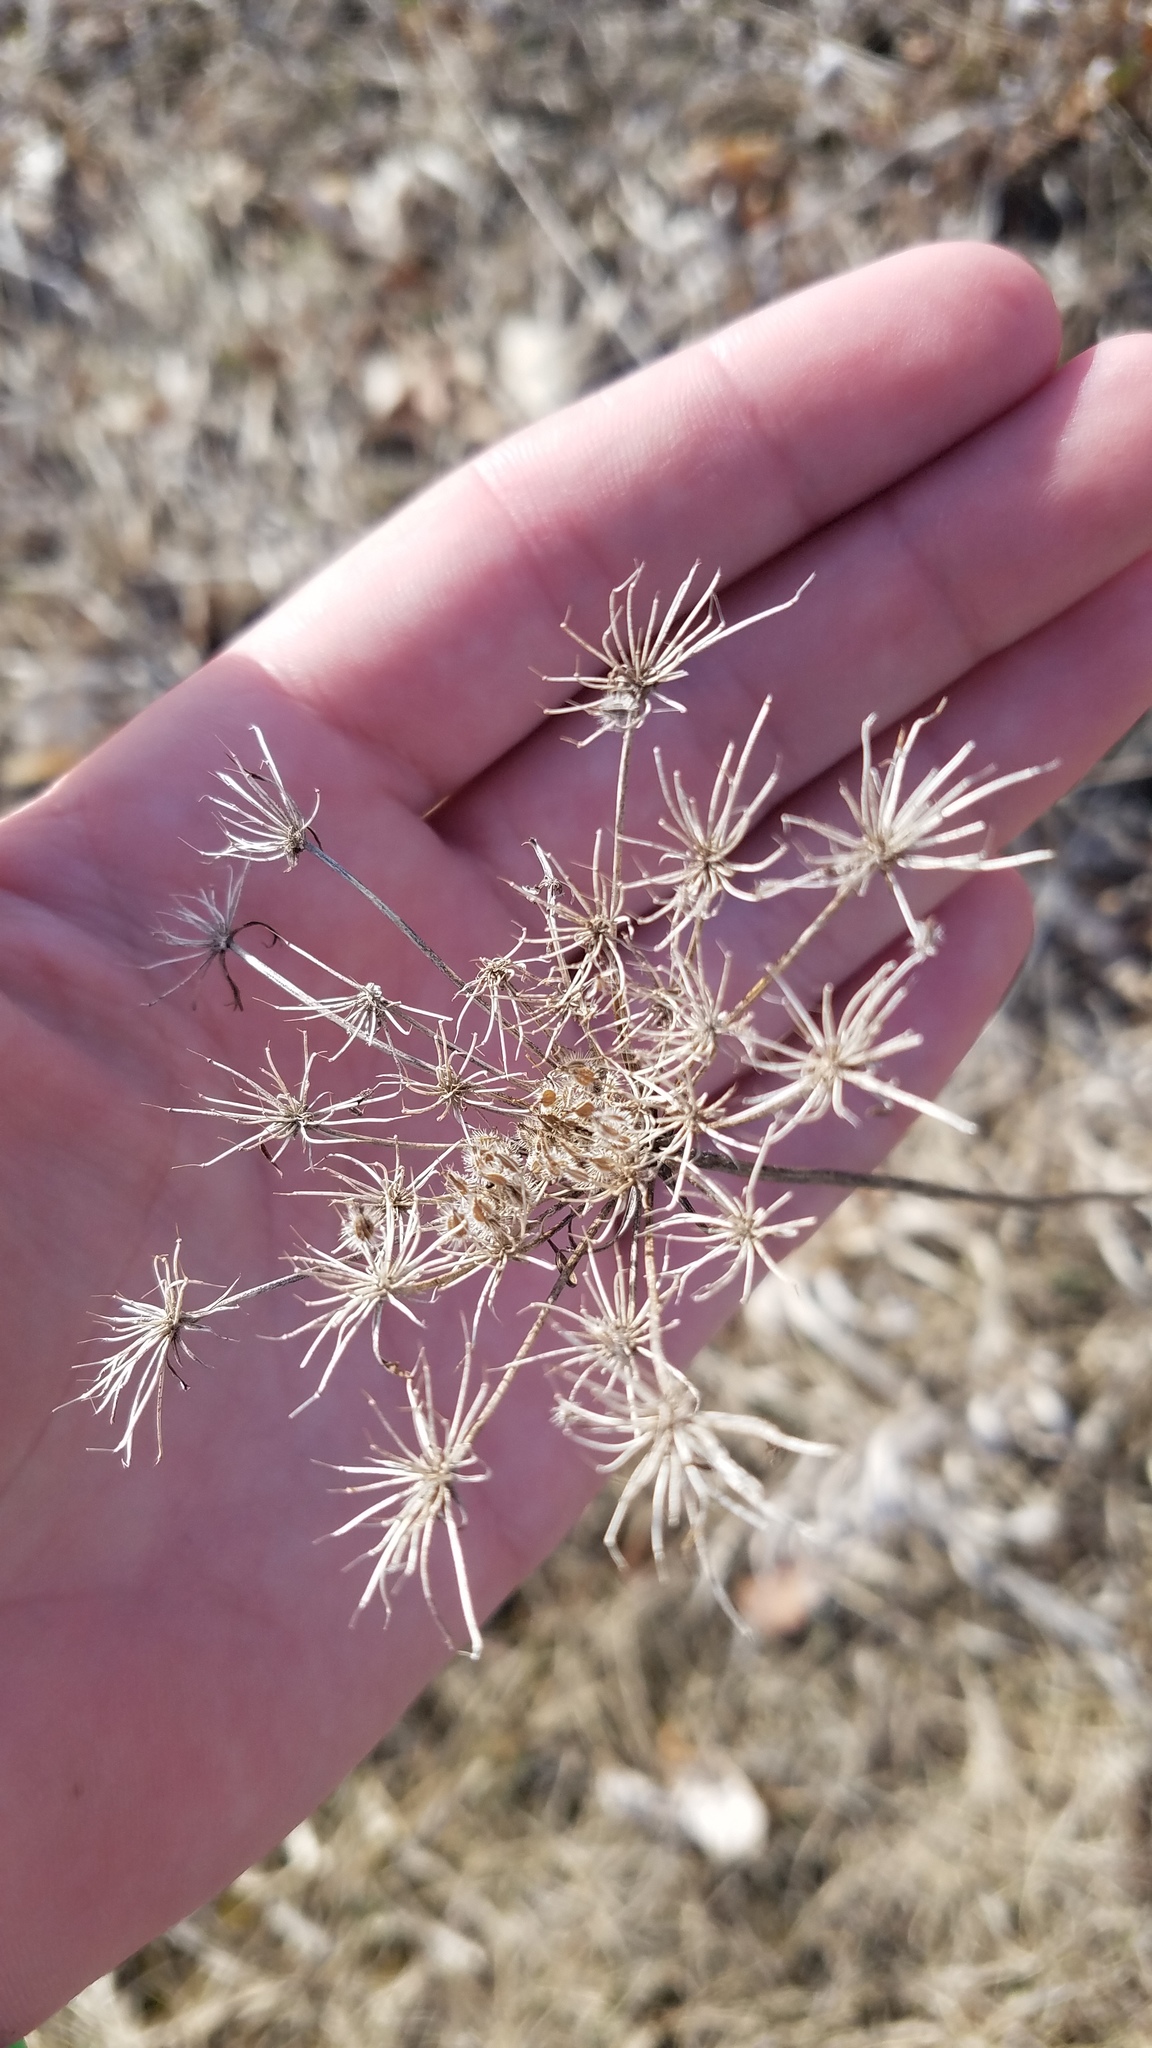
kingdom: Plantae
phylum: Tracheophyta
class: Magnoliopsida
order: Apiales
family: Apiaceae
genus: Daucus
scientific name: Daucus carota
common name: Wild carrot
